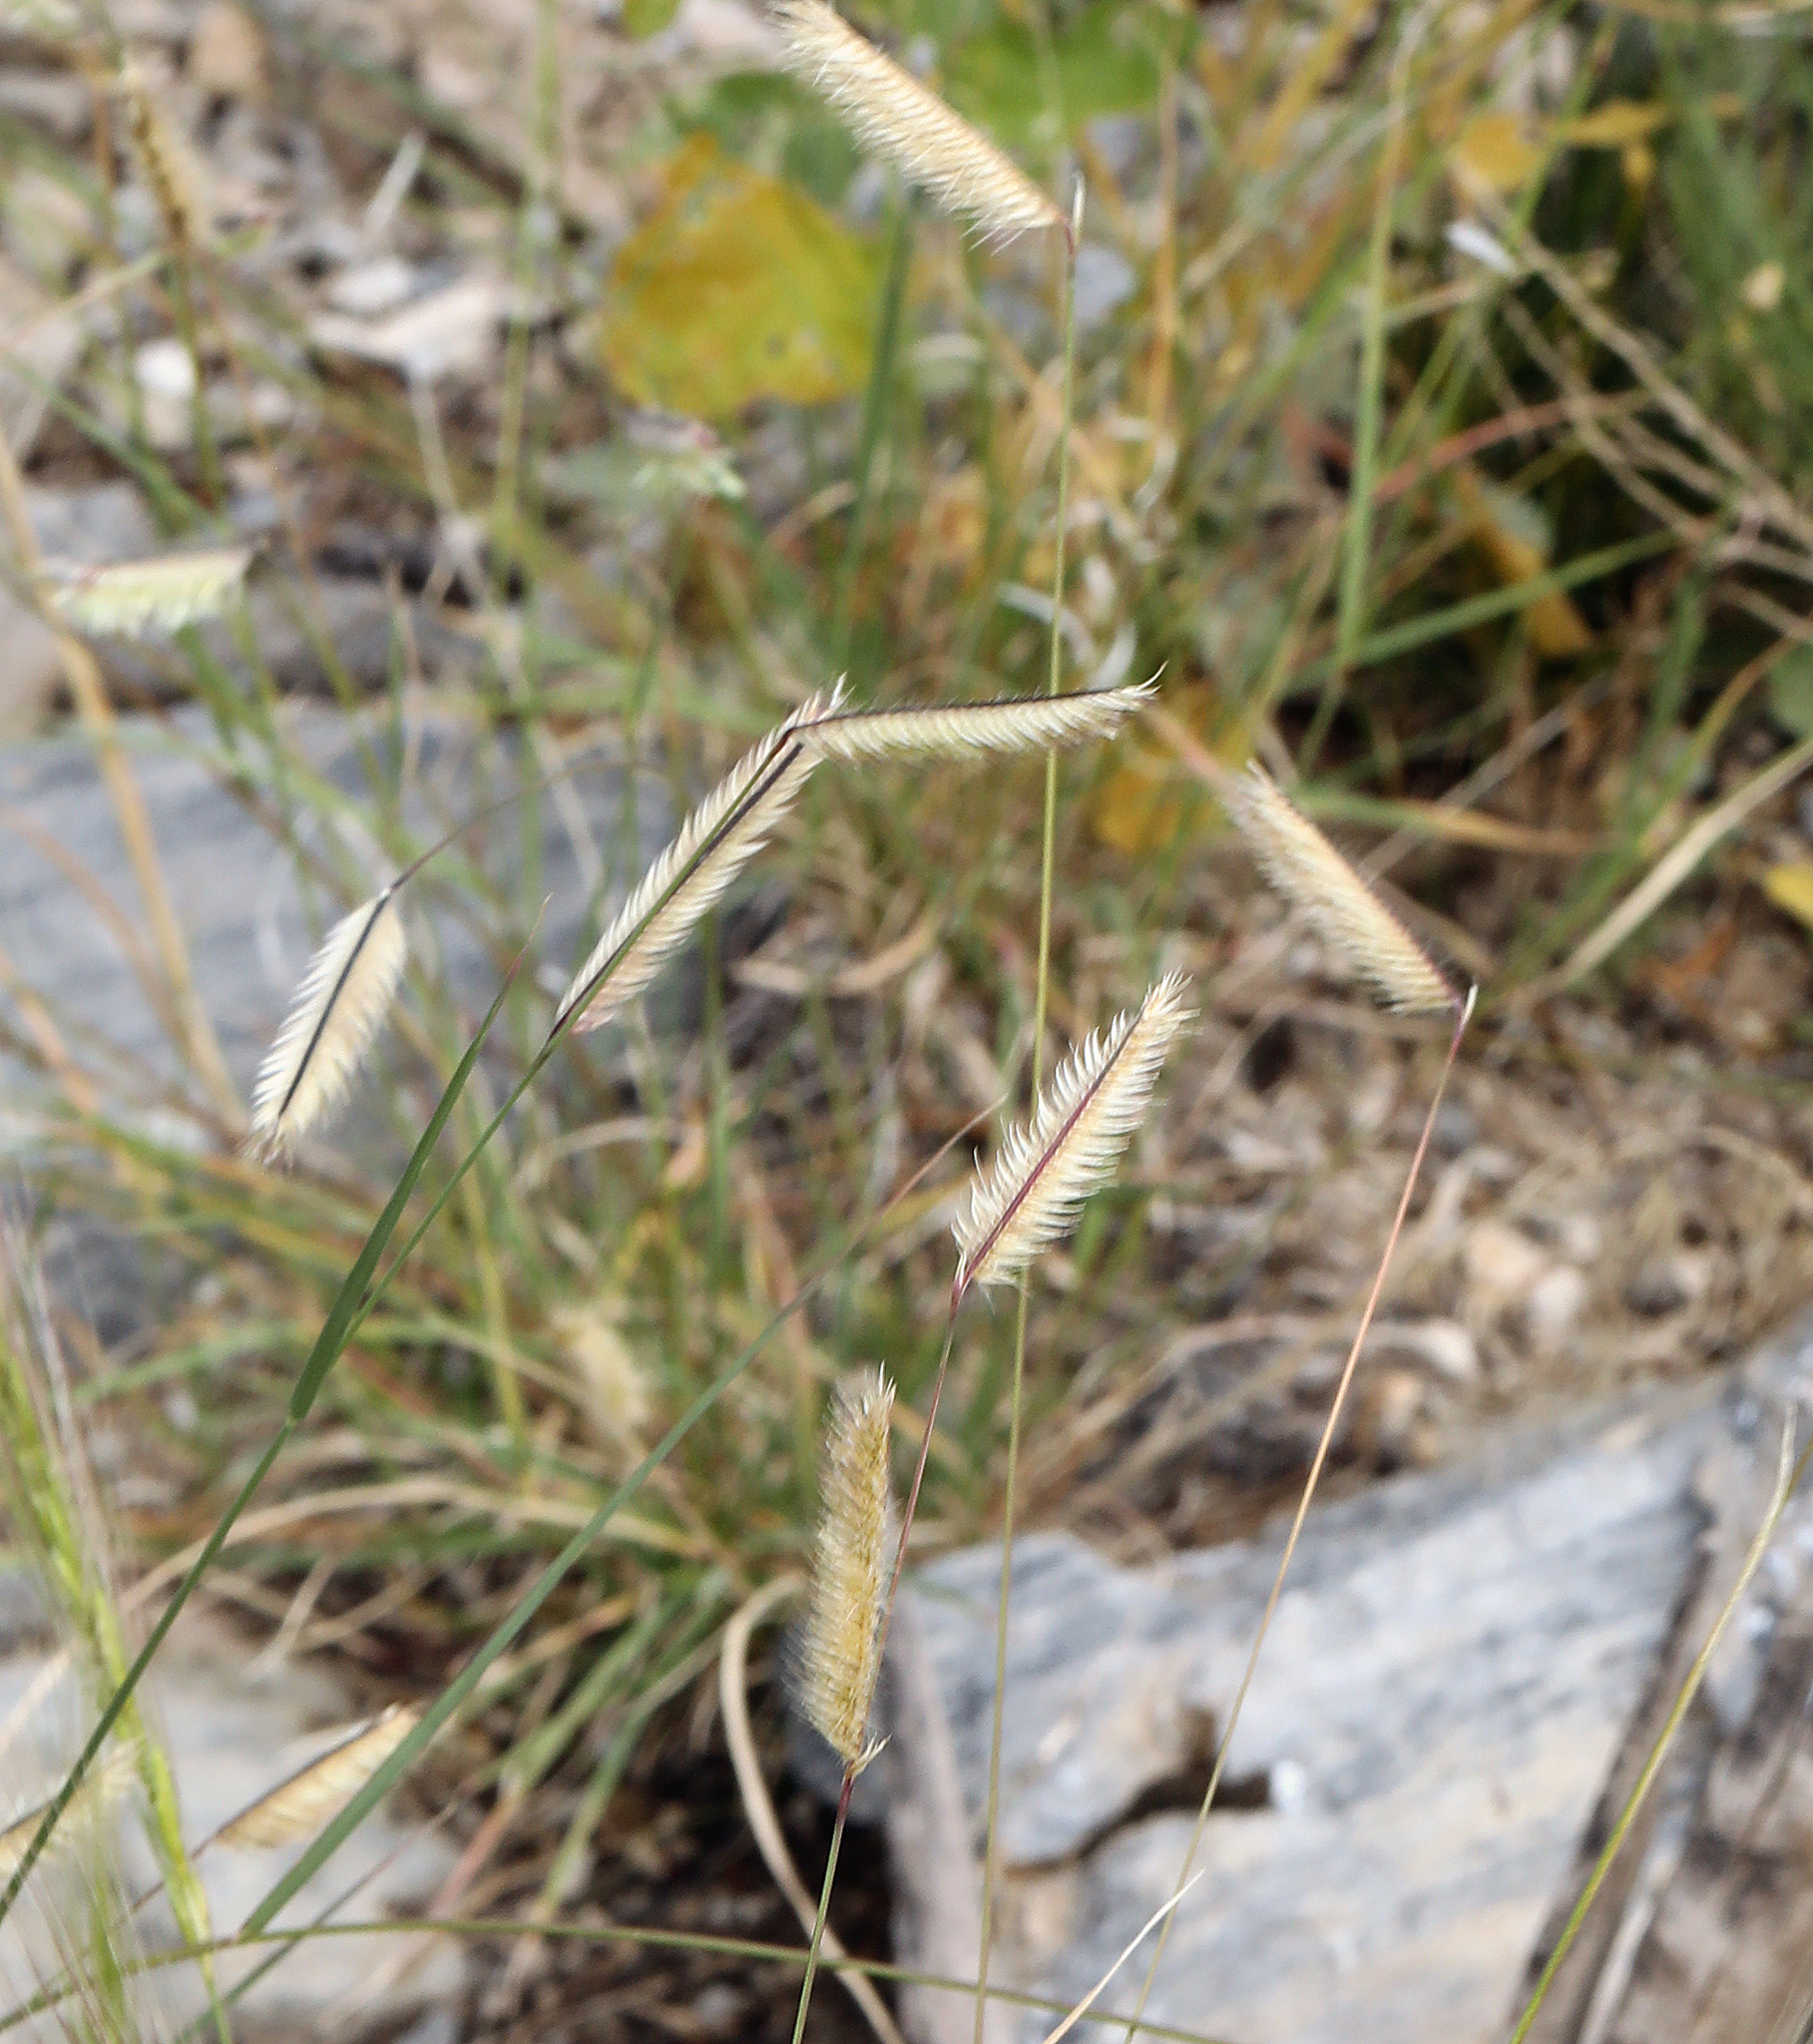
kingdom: Plantae
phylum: Tracheophyta
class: Liliopsida
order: Poales
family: Poaceae
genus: Bouteloua
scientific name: Bouteloua gracilis
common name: Blue grama
